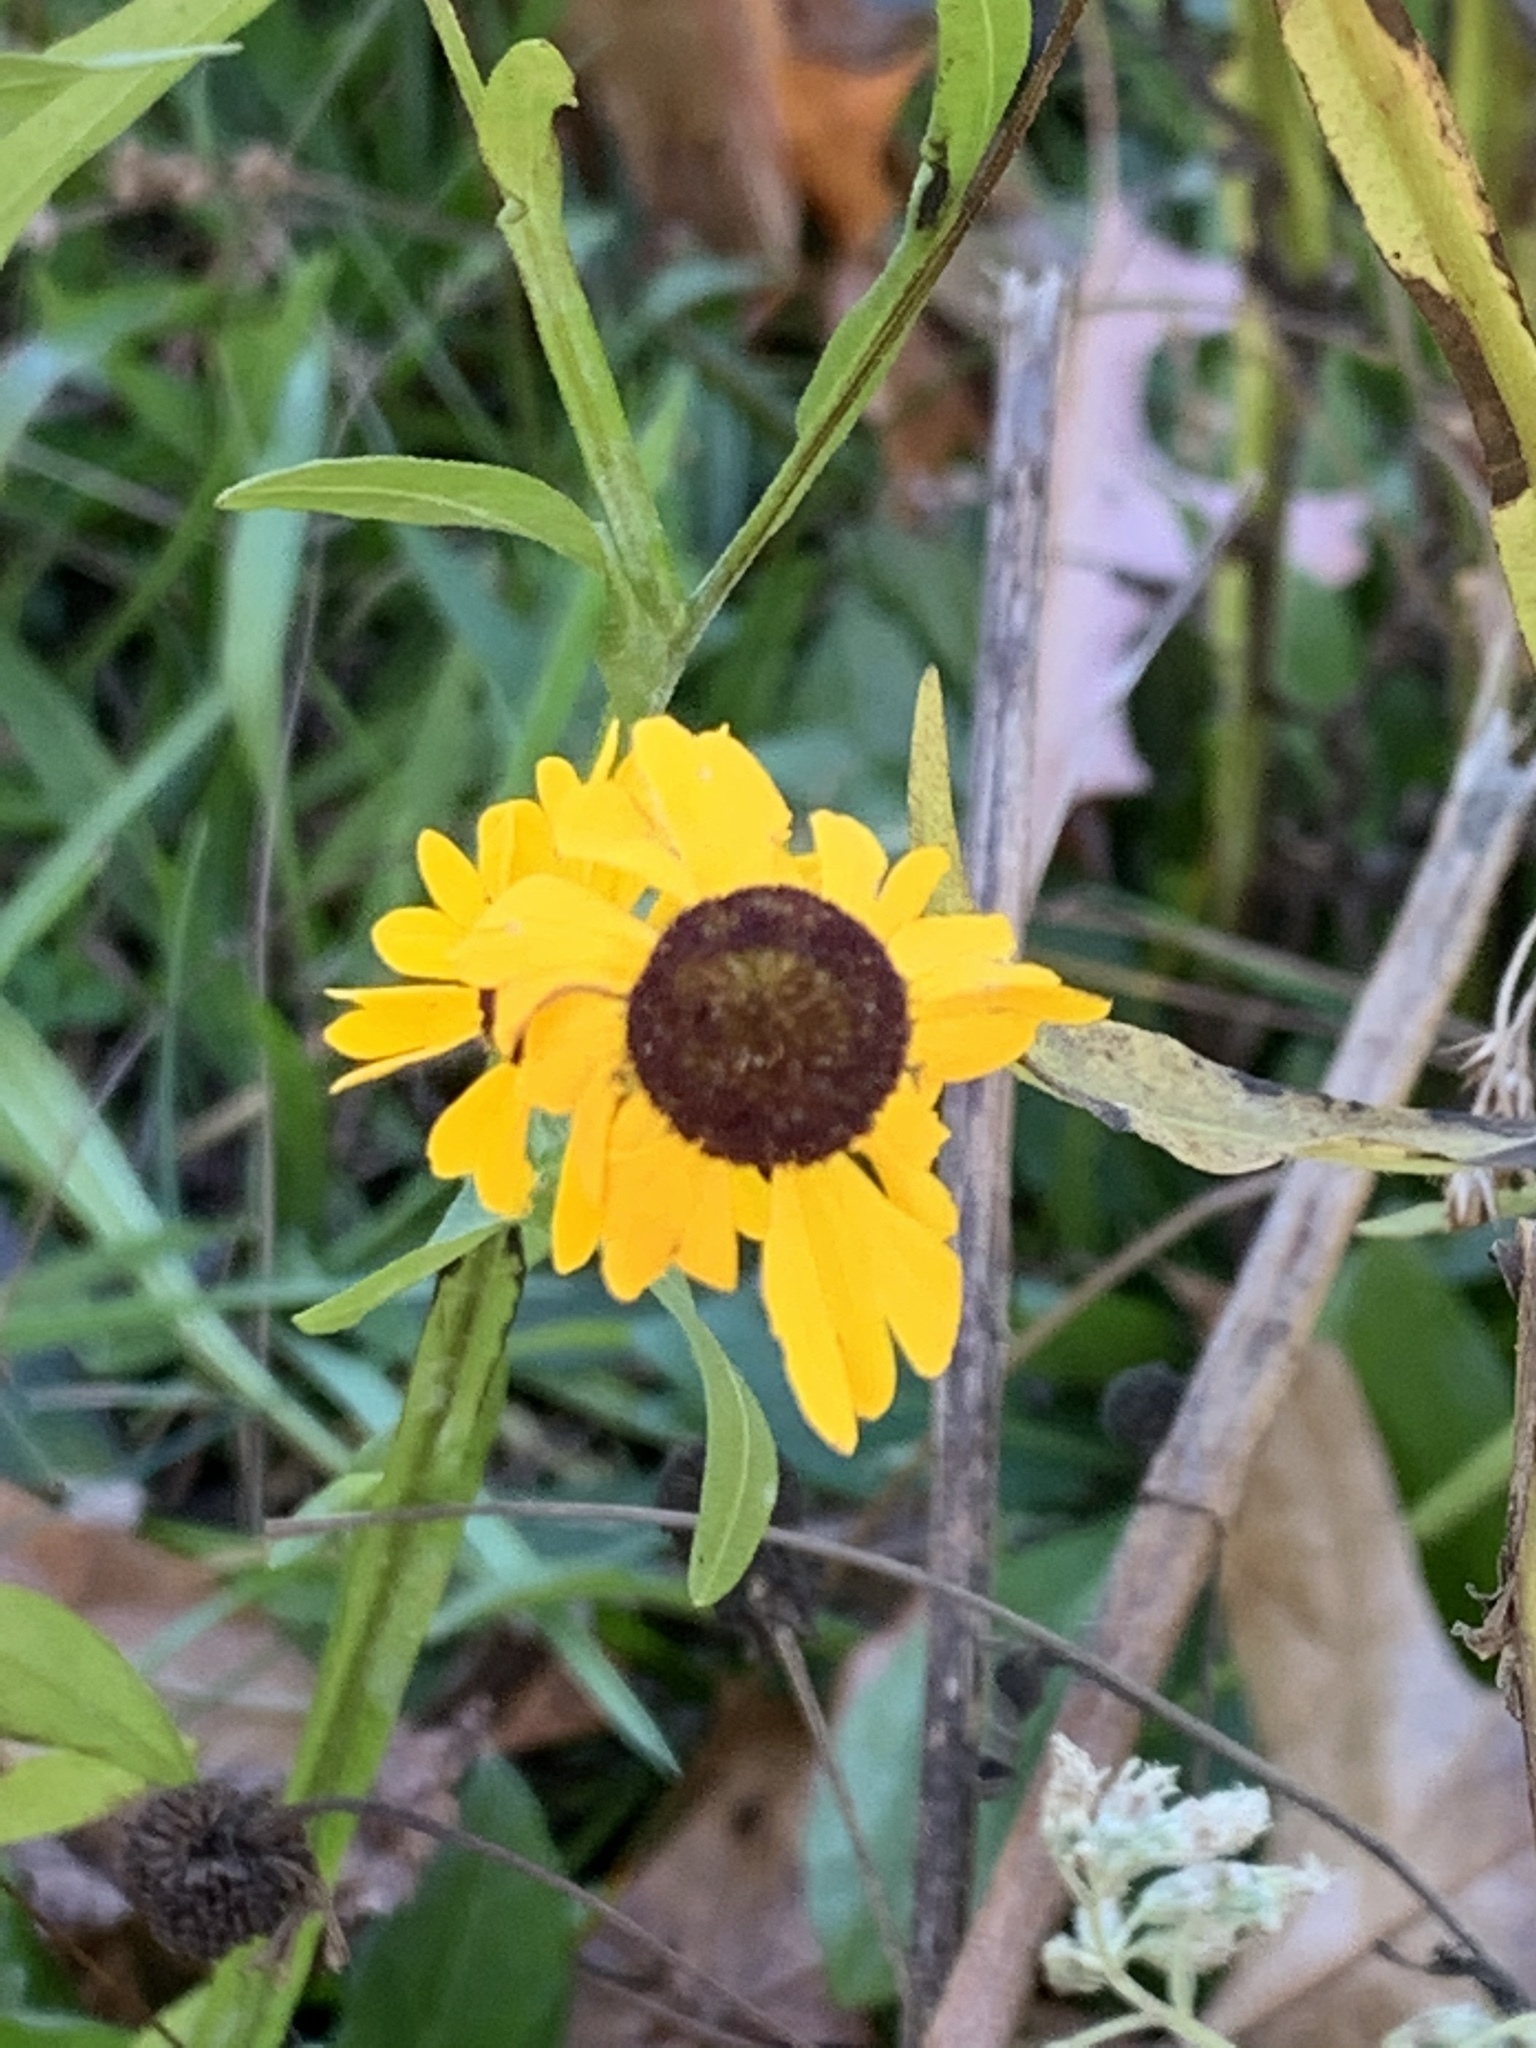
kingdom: Plantae
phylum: Tracheophyta
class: Magnoliopsida
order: Asterales
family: Asteraceae
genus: Helenium
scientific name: Helenium flexuosum
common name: Naked-flowered sneezeweed
